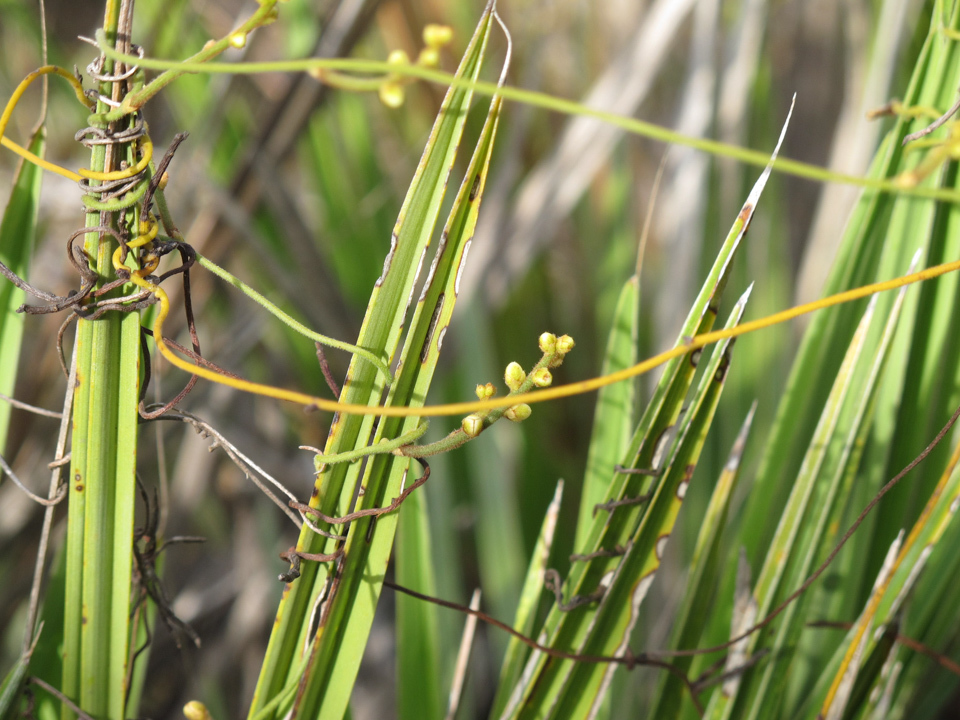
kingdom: Plantae
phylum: Tracheophyta
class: Magnoliopsida
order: Laurales
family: Lauraceae
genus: Cassytha
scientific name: Cassytha filiformis
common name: Dodder-laurel
